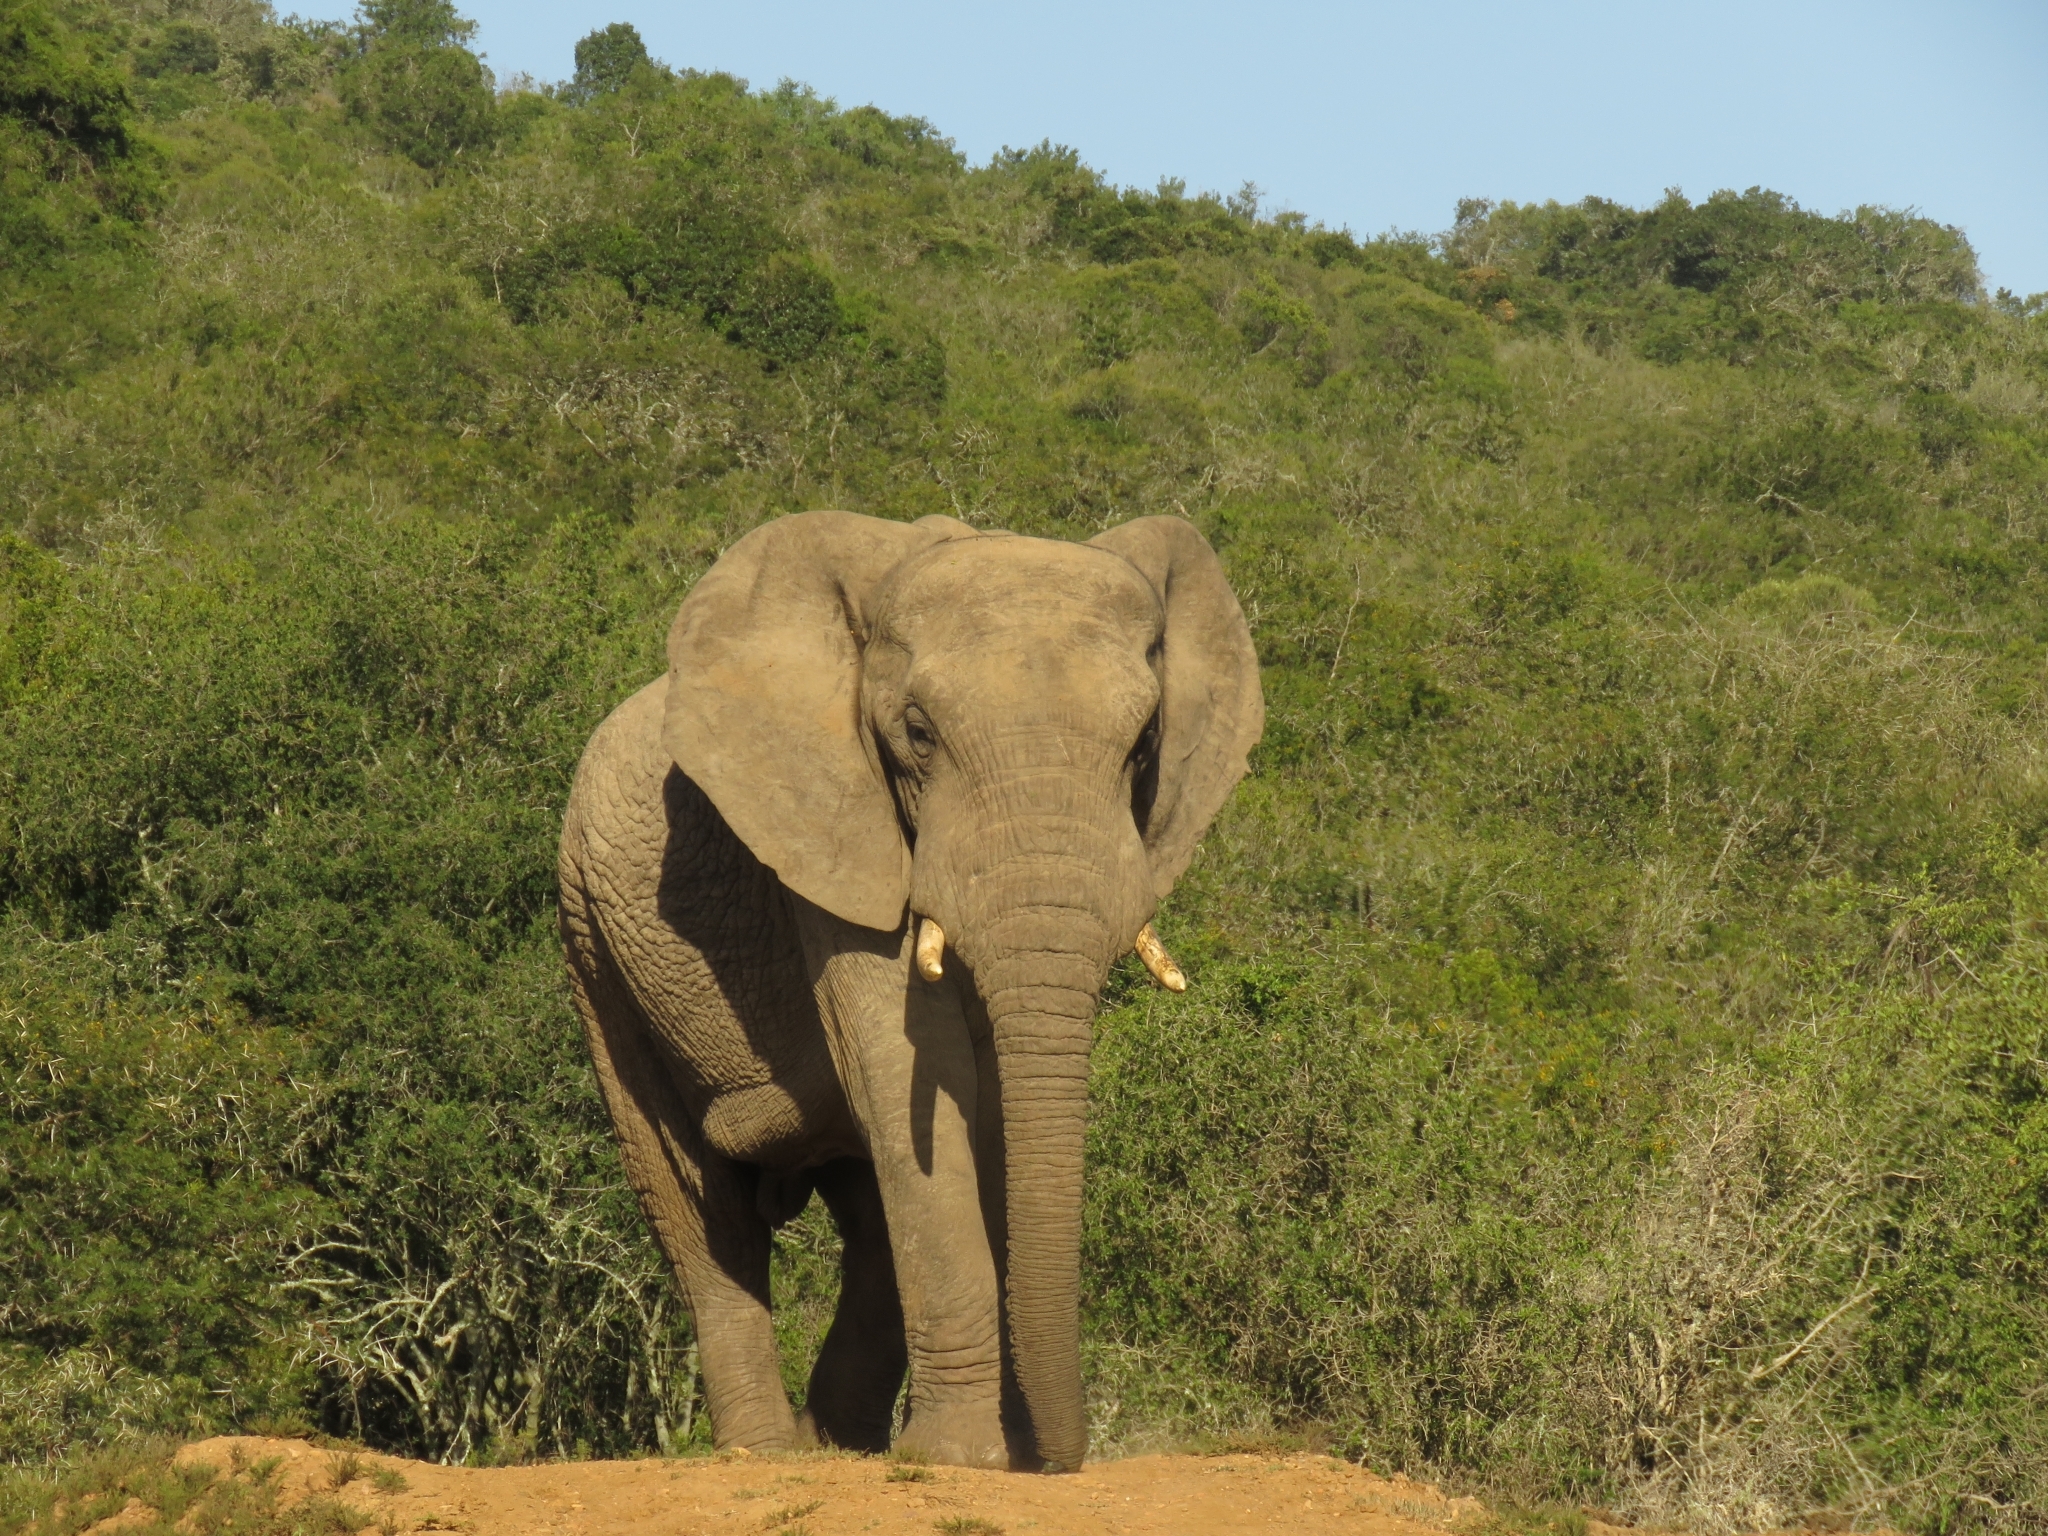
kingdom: Animalia
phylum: Chordata
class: Mammalia
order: Proboscidea
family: Elephantidae
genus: Loxodonta
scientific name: Loxodonta africana
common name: African elephant
